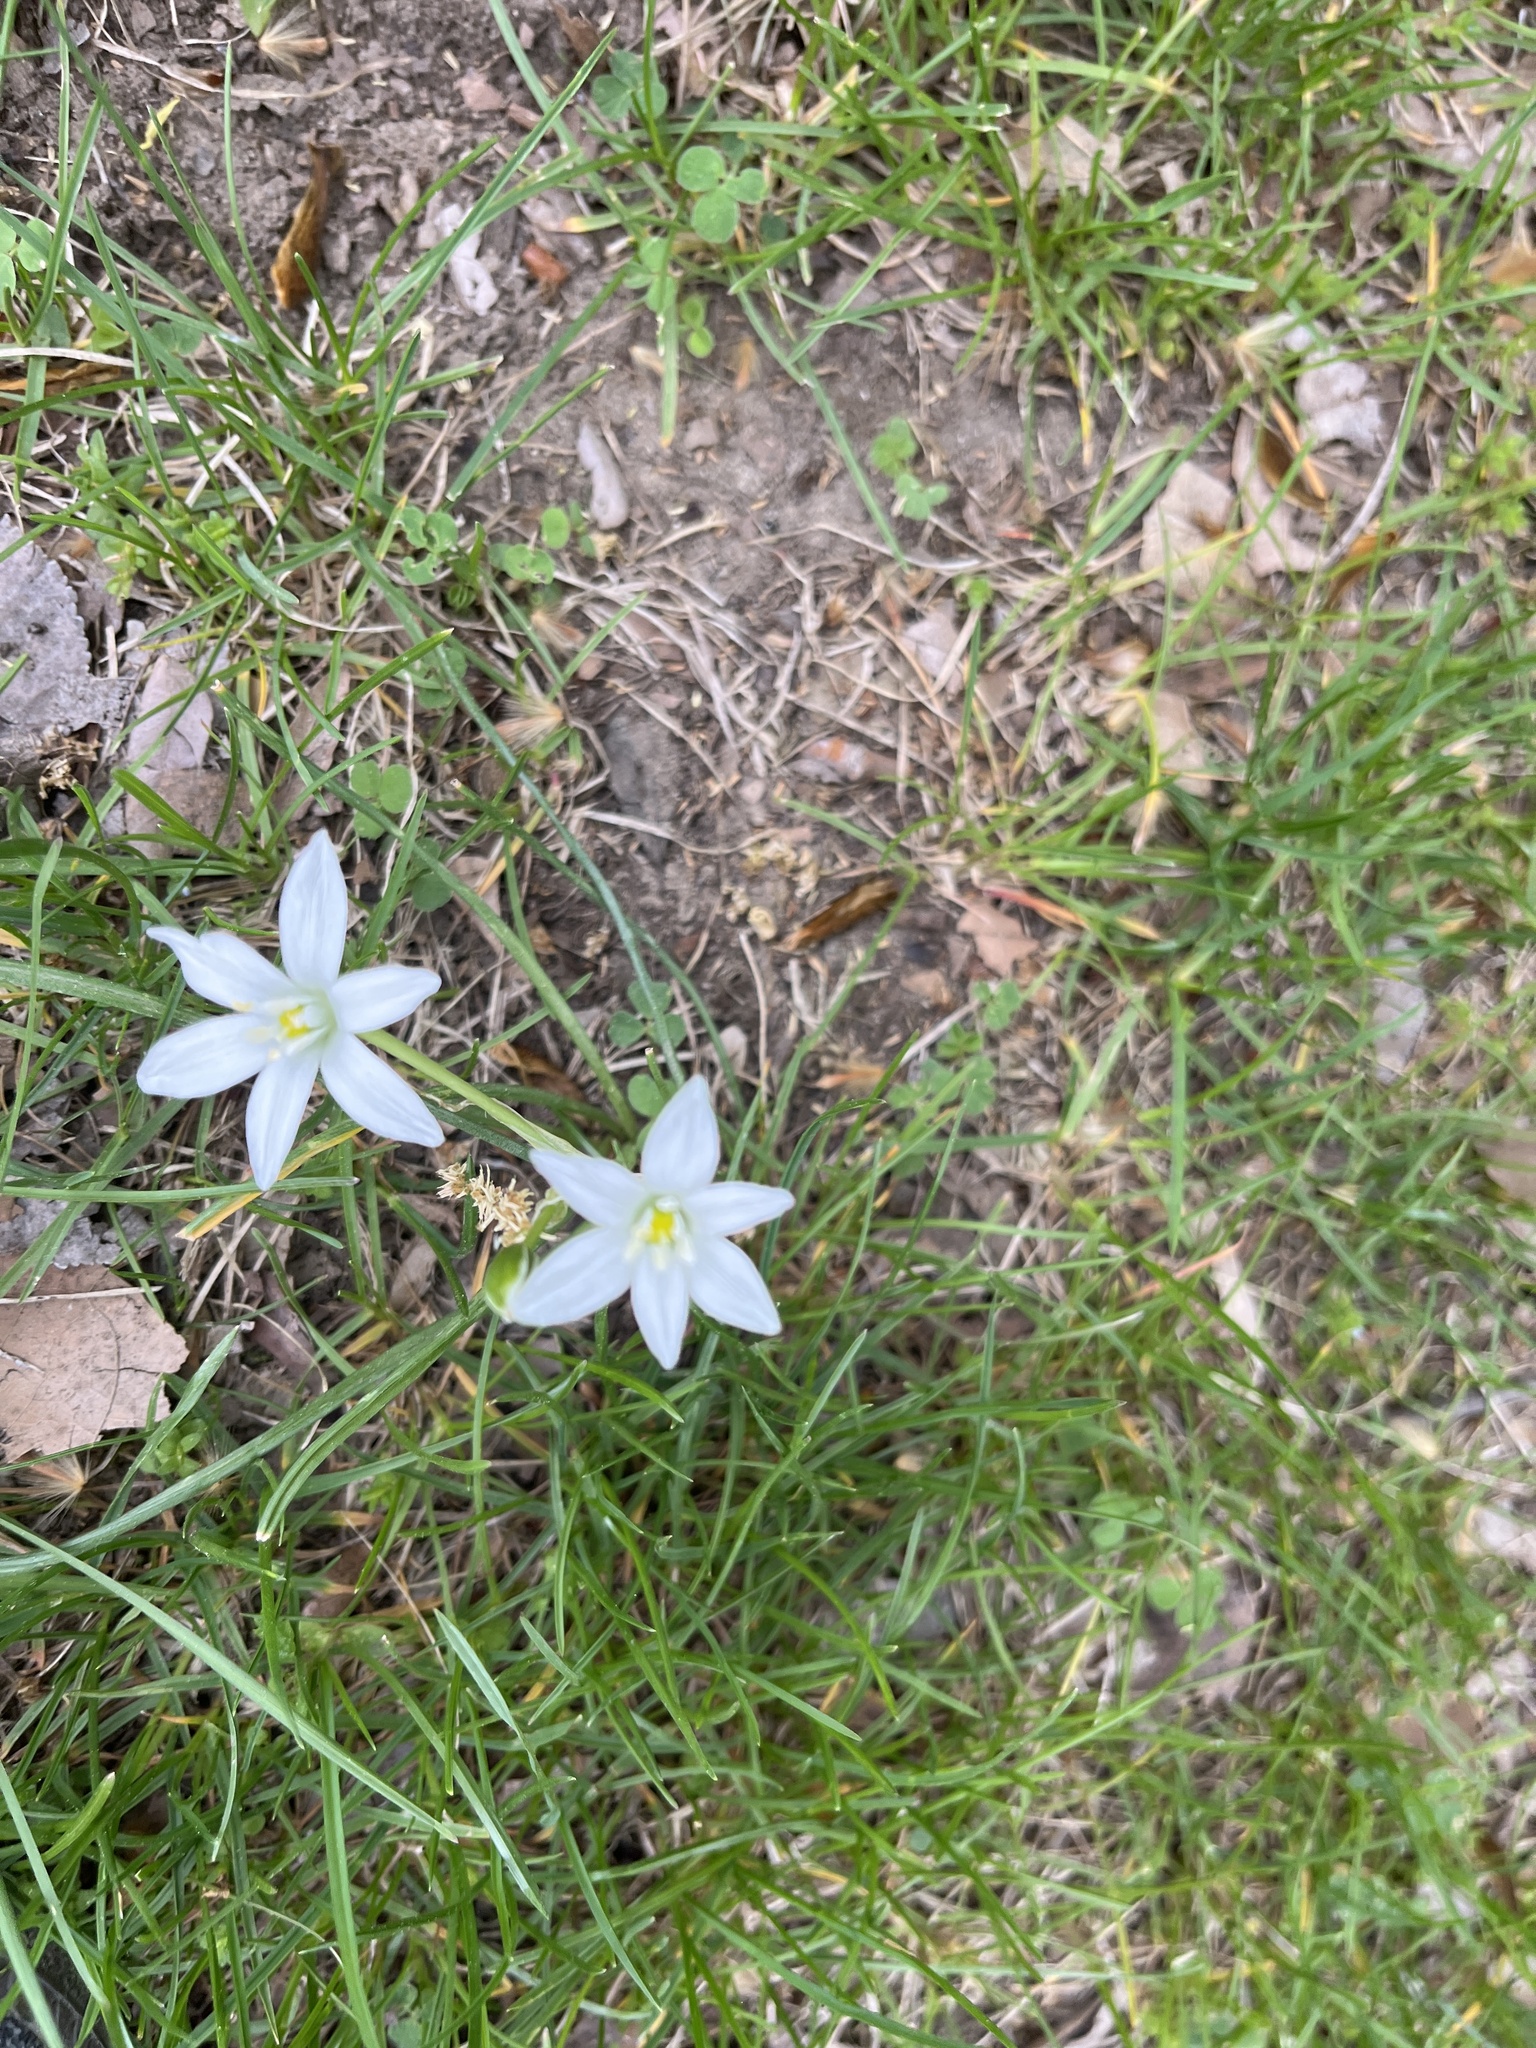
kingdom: Plantae
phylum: Tracheophyta
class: Liliopsida
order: Asparagales
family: Asparagaceae
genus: Ornithogalum
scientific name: Ornithogalum umbellatum
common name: Garden star-of-bethlehem
